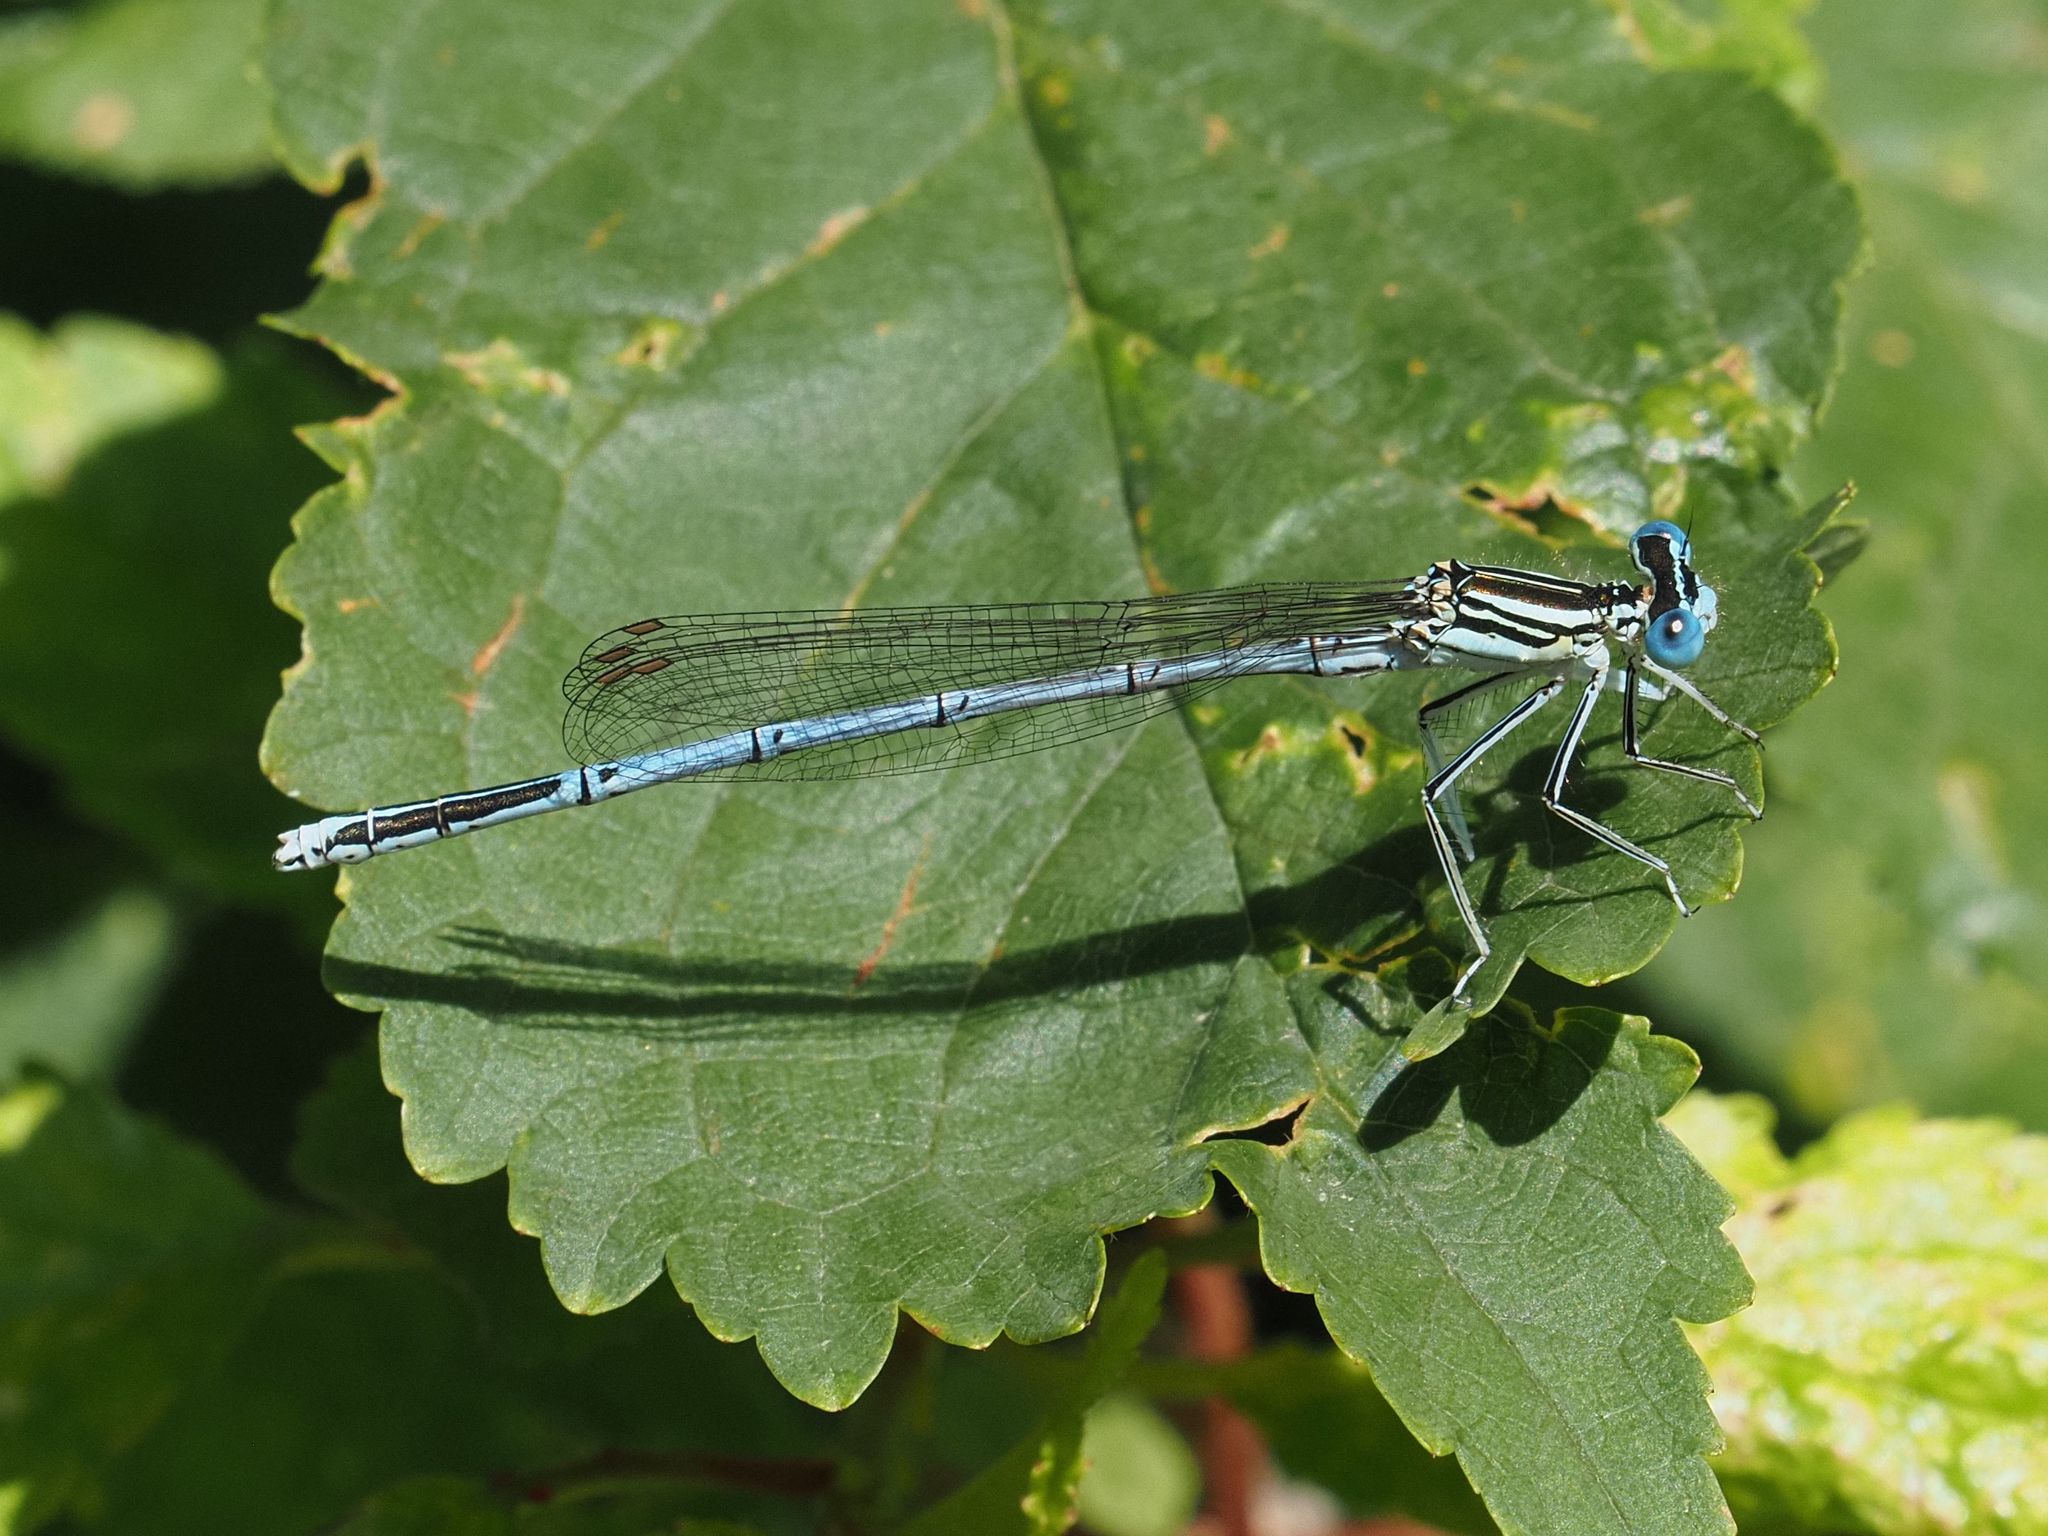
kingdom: Animalia
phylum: Arthropoda
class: Insecta
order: Odonata
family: Platycnemididae
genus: Platycnemis
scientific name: Platycnemis pennipes
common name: White-legged damselfly
